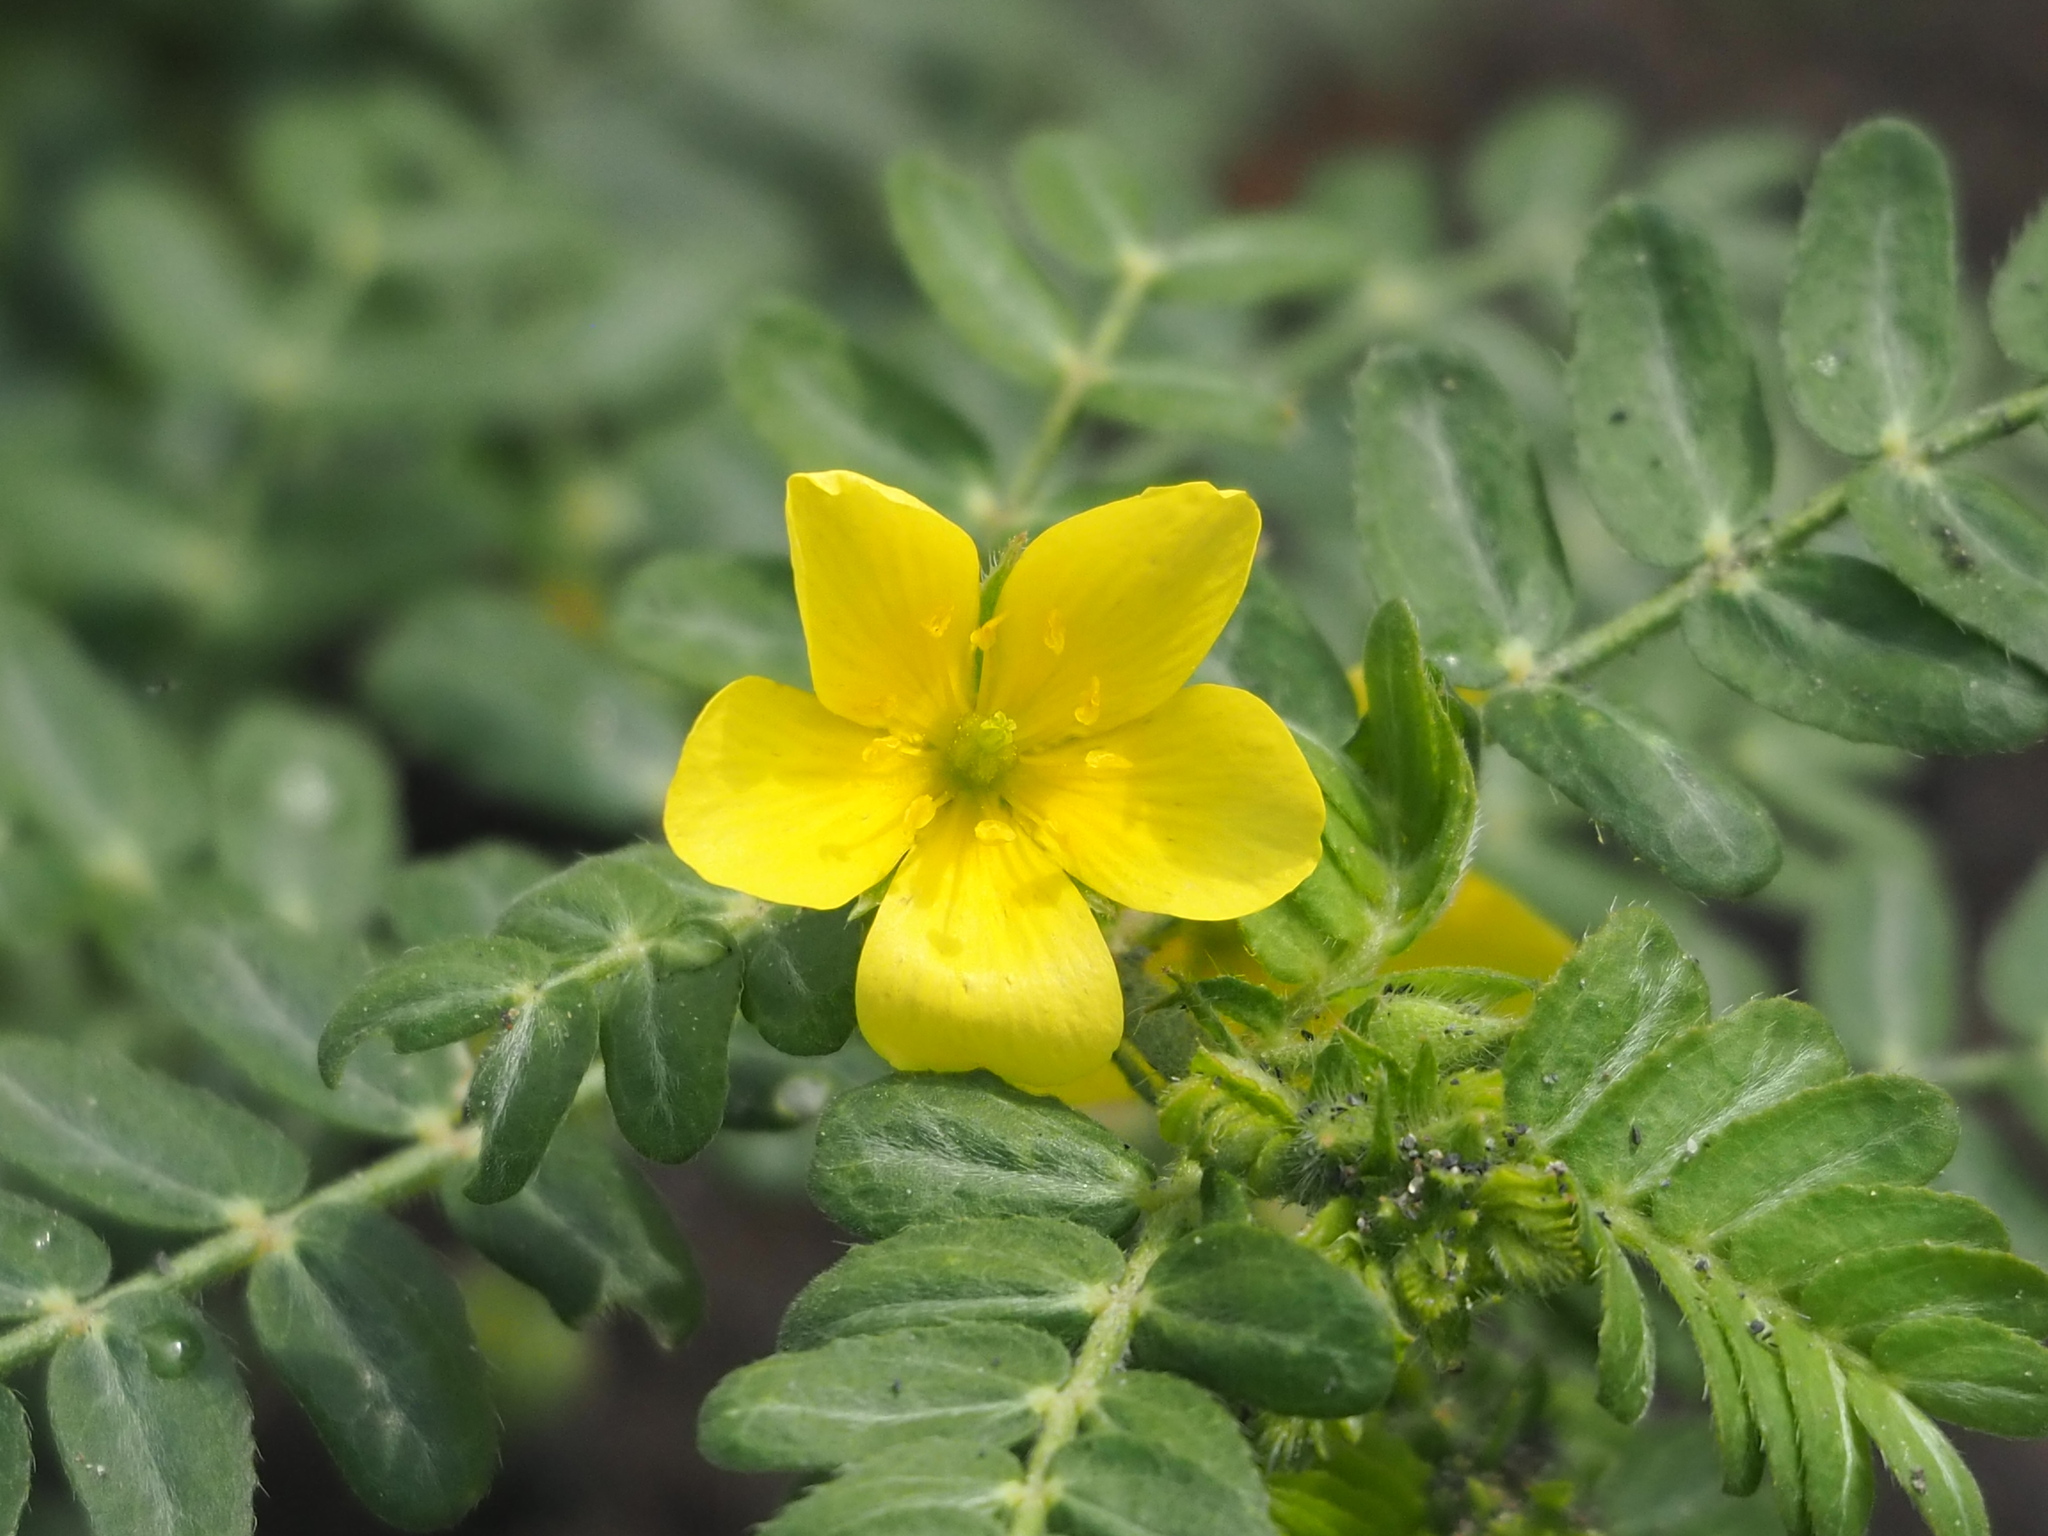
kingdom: Plantae
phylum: Tracheophyta
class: Magnoliopsida
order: Zygophyllales
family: Zygophyllaceae
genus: Tribulus
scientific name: Tribulus cistoides
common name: Jamaican feverplant
